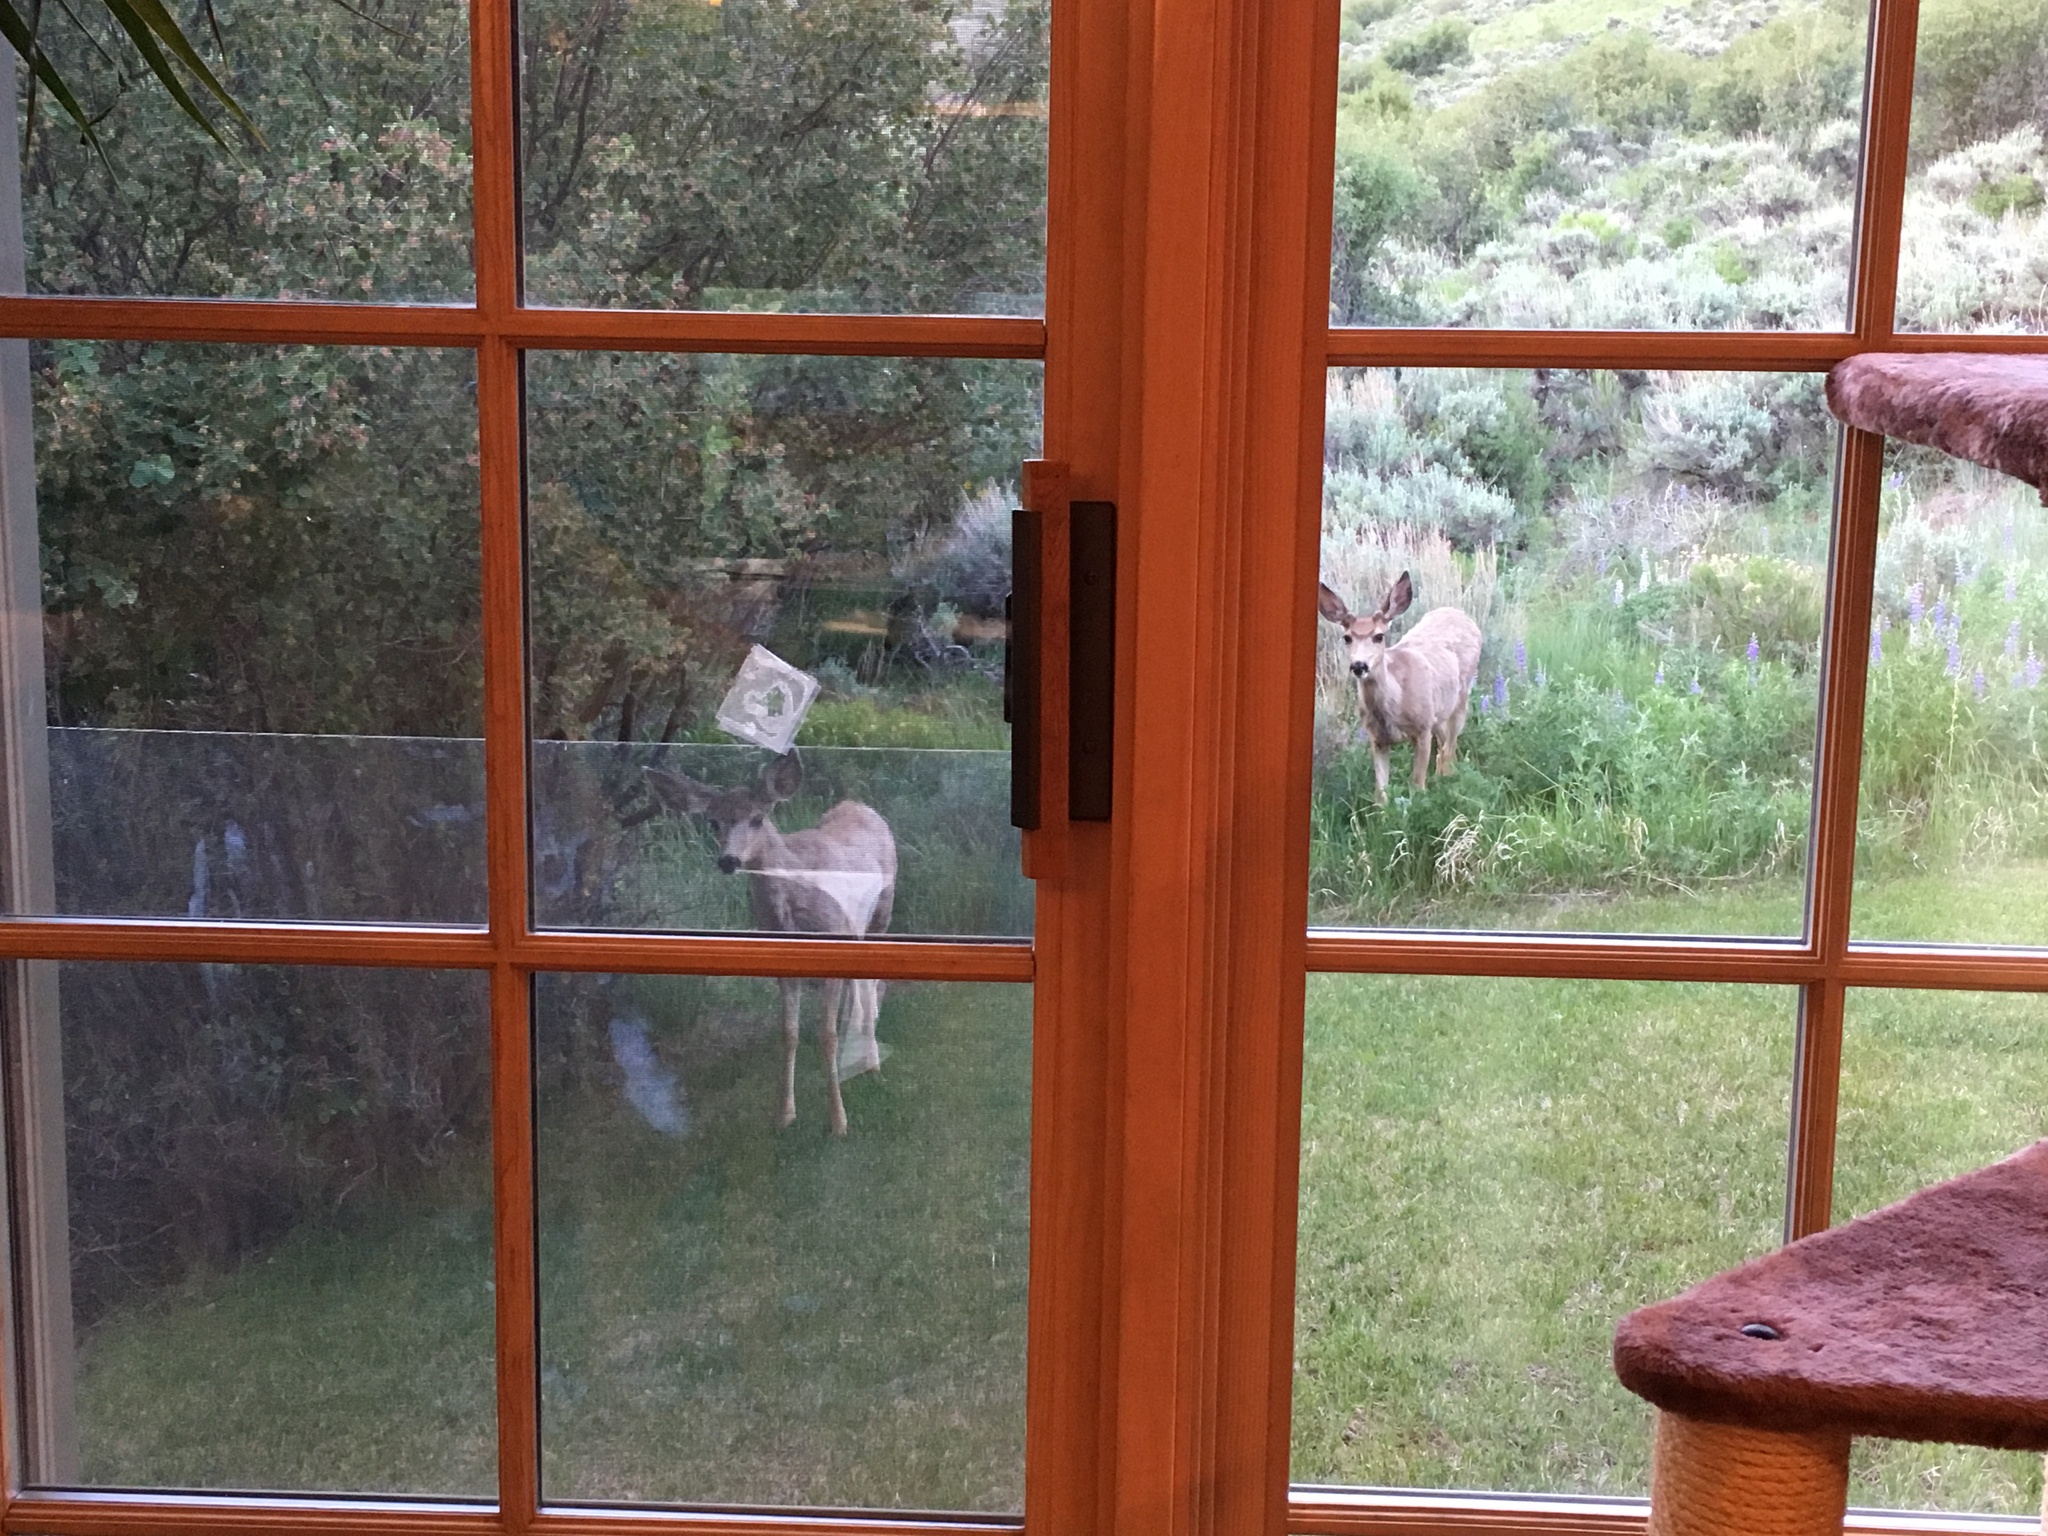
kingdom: Animalia
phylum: Chordata
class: Mammalia
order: Artiodactyla
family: Cervidae
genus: Odocoileus
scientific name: Odocoileus hemionus
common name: Mule deer
